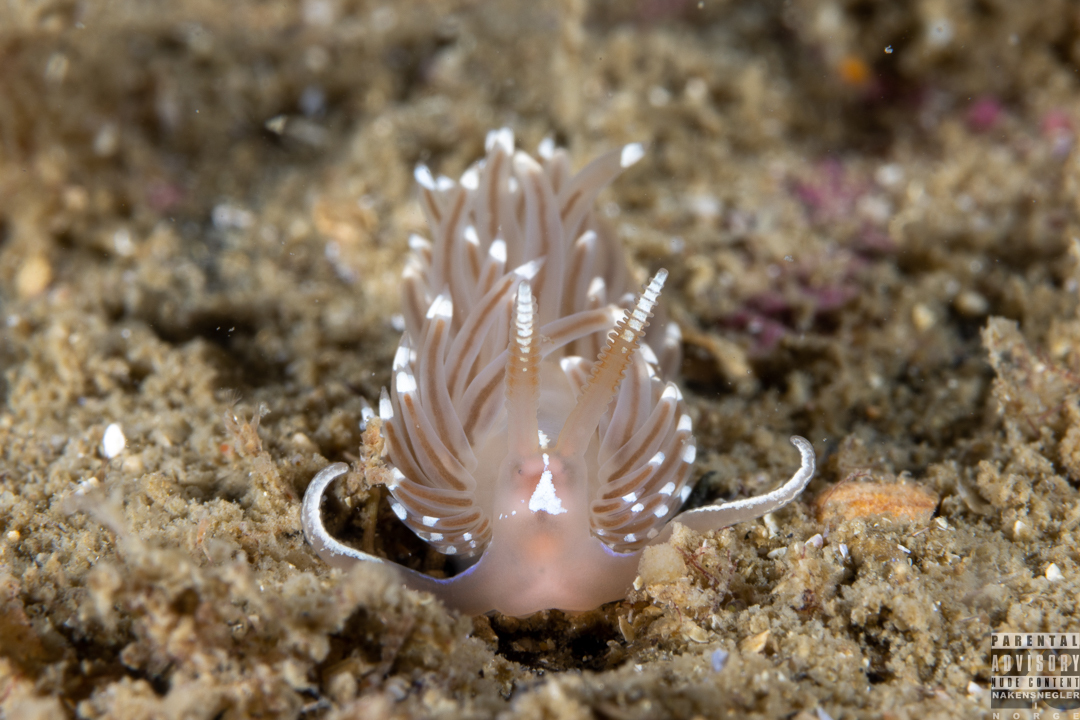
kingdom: Animalia
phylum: Mollusca
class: Gastropoda
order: Nudibranchia
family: Facelinidae
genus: Facelina
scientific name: Facelina bostoniensis
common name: Boston facelina
